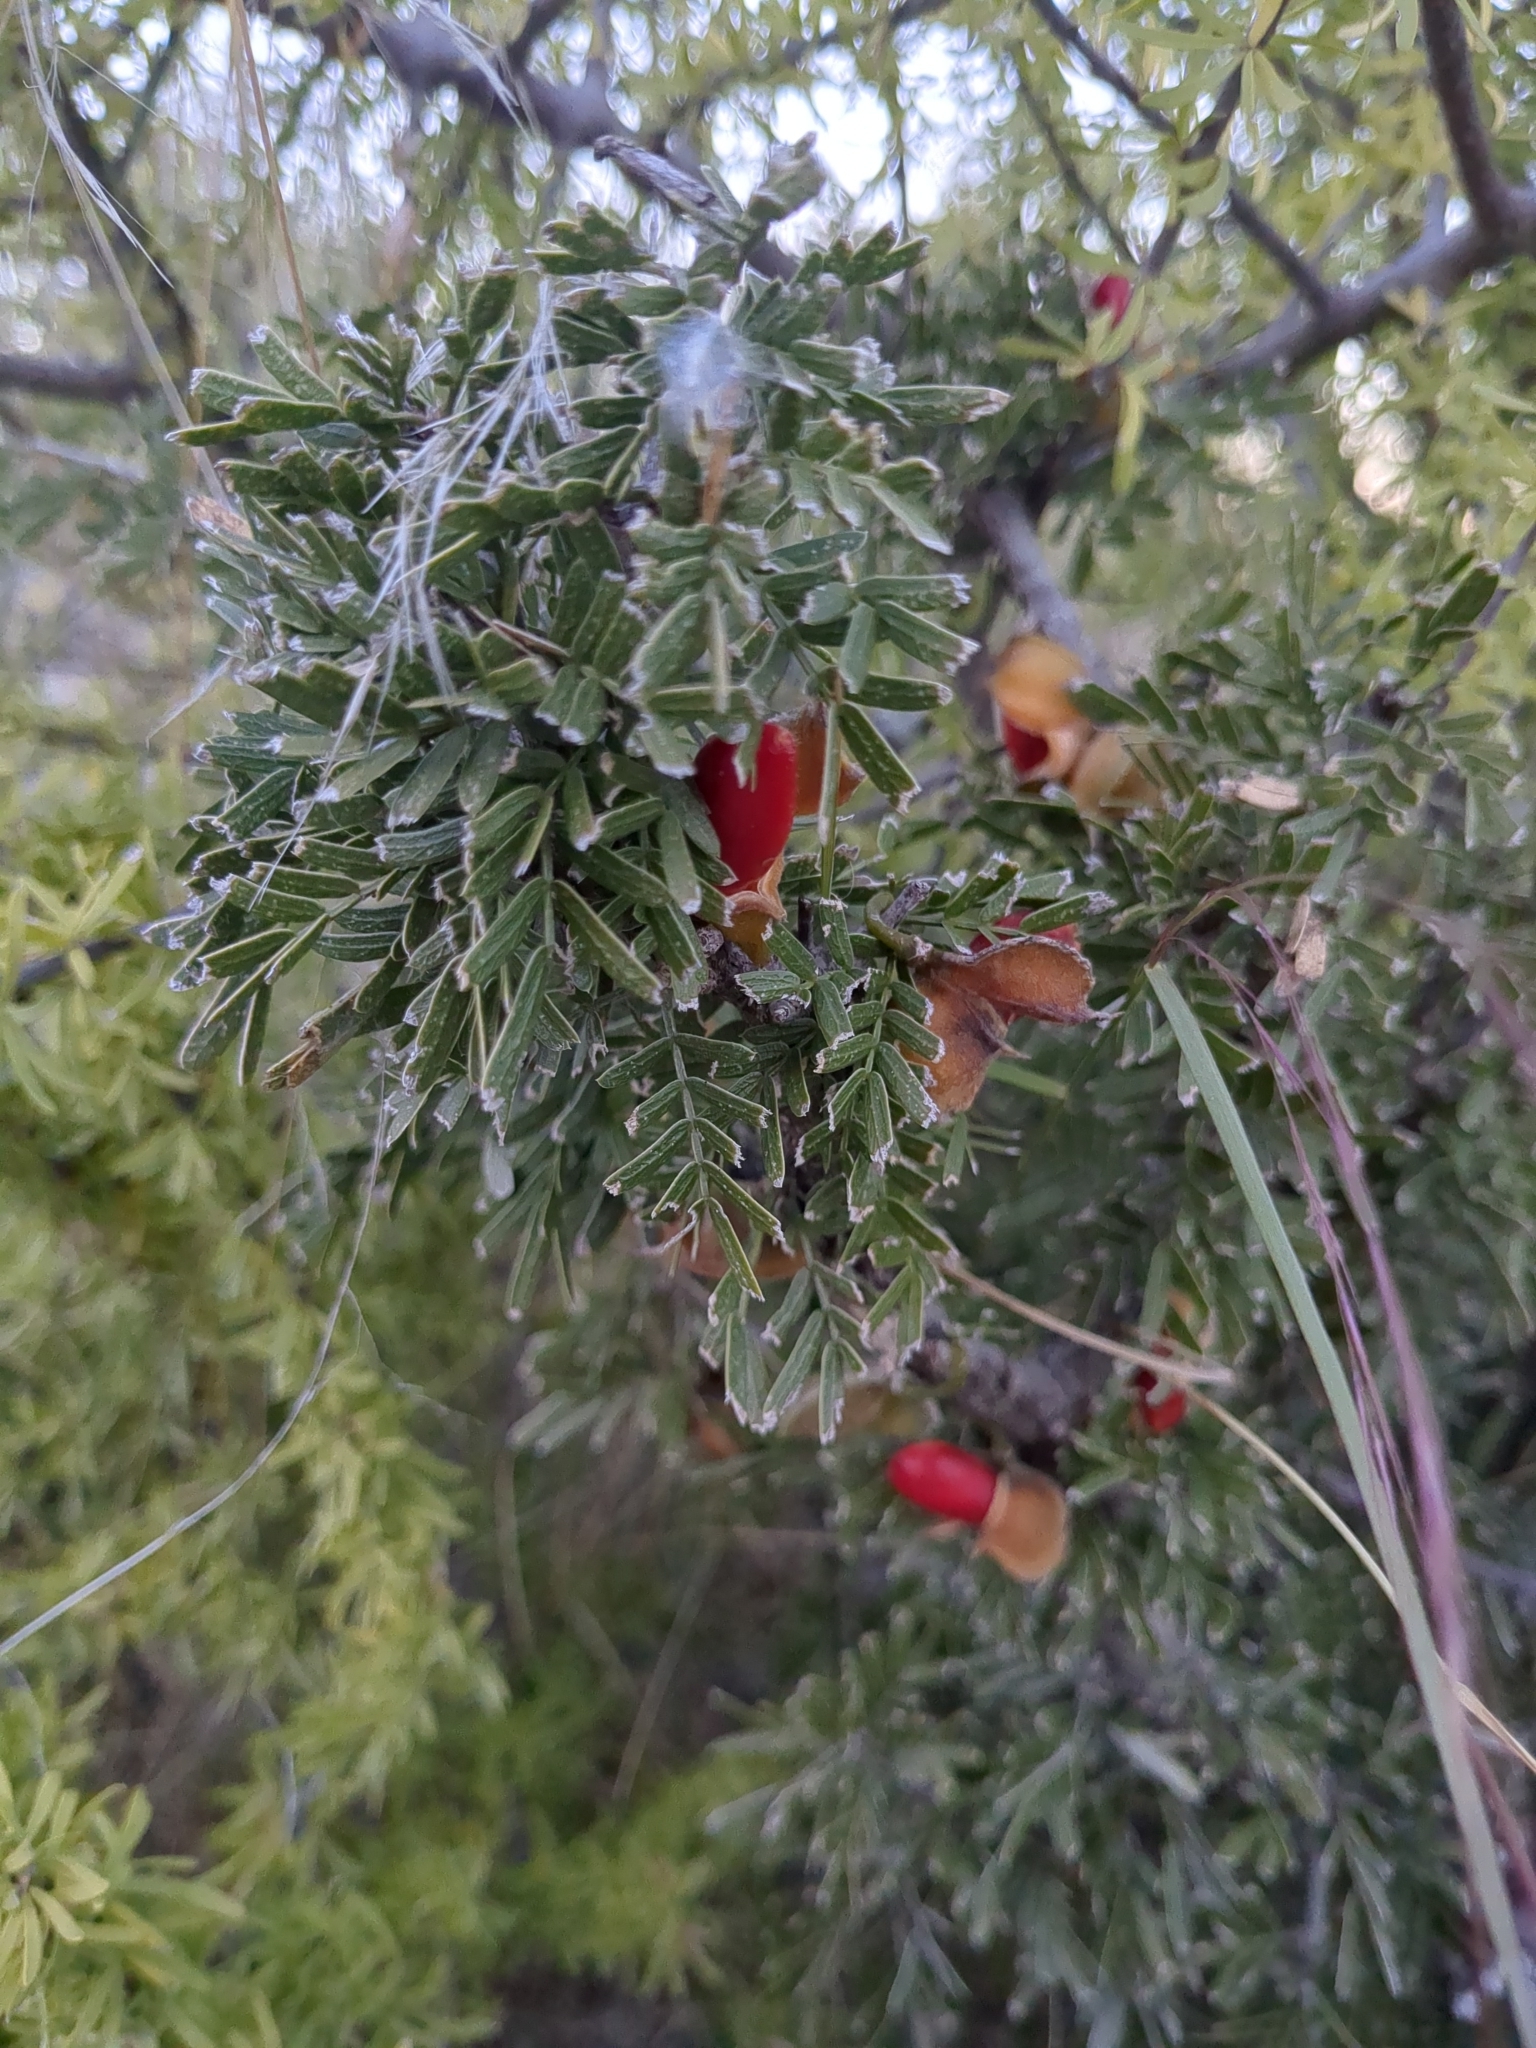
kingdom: Plantae
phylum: Tracheophyta
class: Magnoliopsida
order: Zygophyllales
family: Zygophyllaceae
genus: Porlieria
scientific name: Porlieria angustifolia
